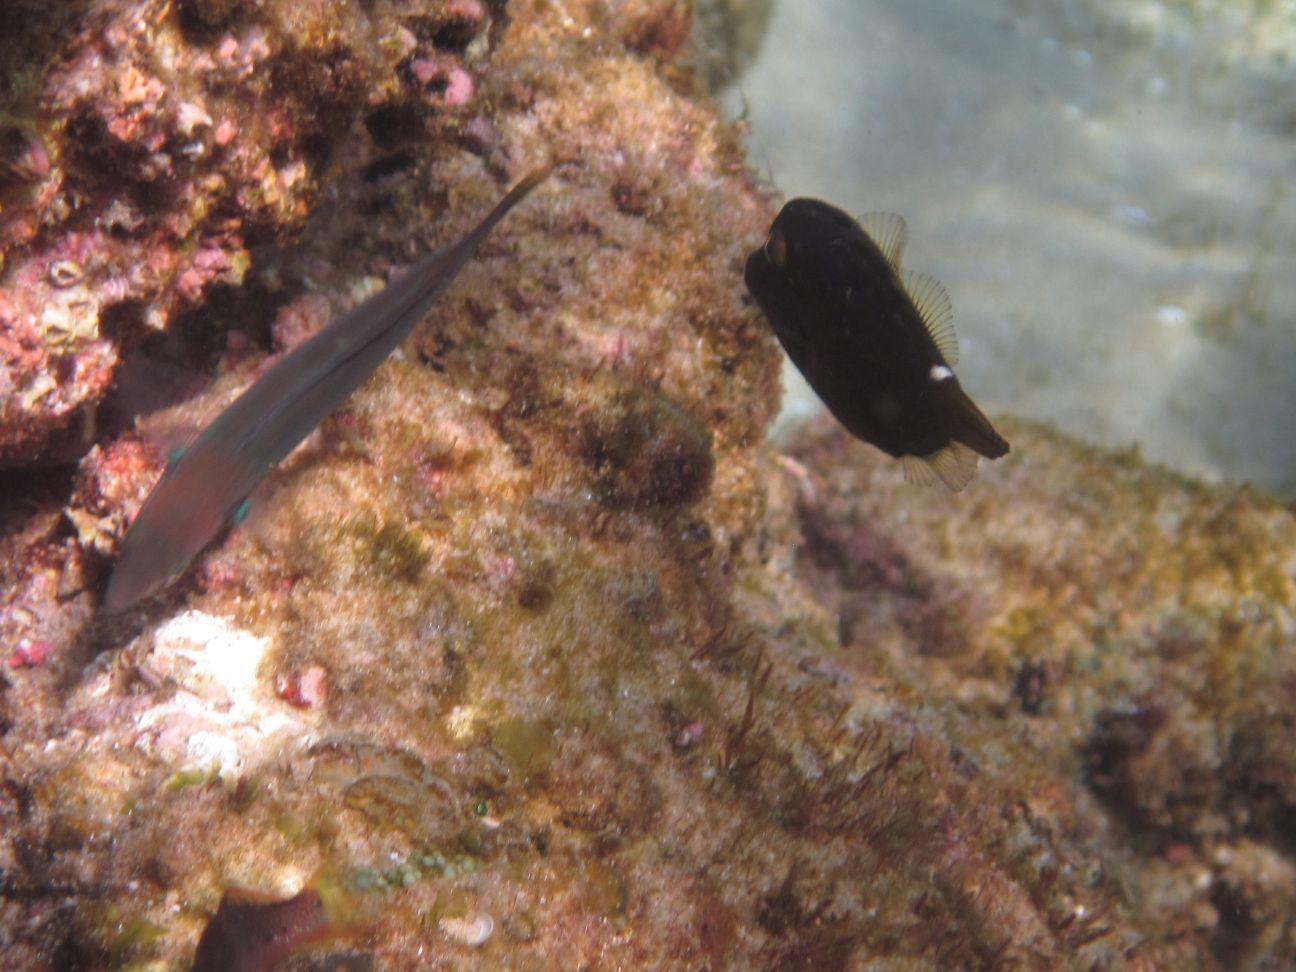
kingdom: Animalia
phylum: Chordata
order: Tetraodontiformes
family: Monacanthidae
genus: Cantherhines
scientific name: Cantherhines pardalis
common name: Honeycomb filefish
